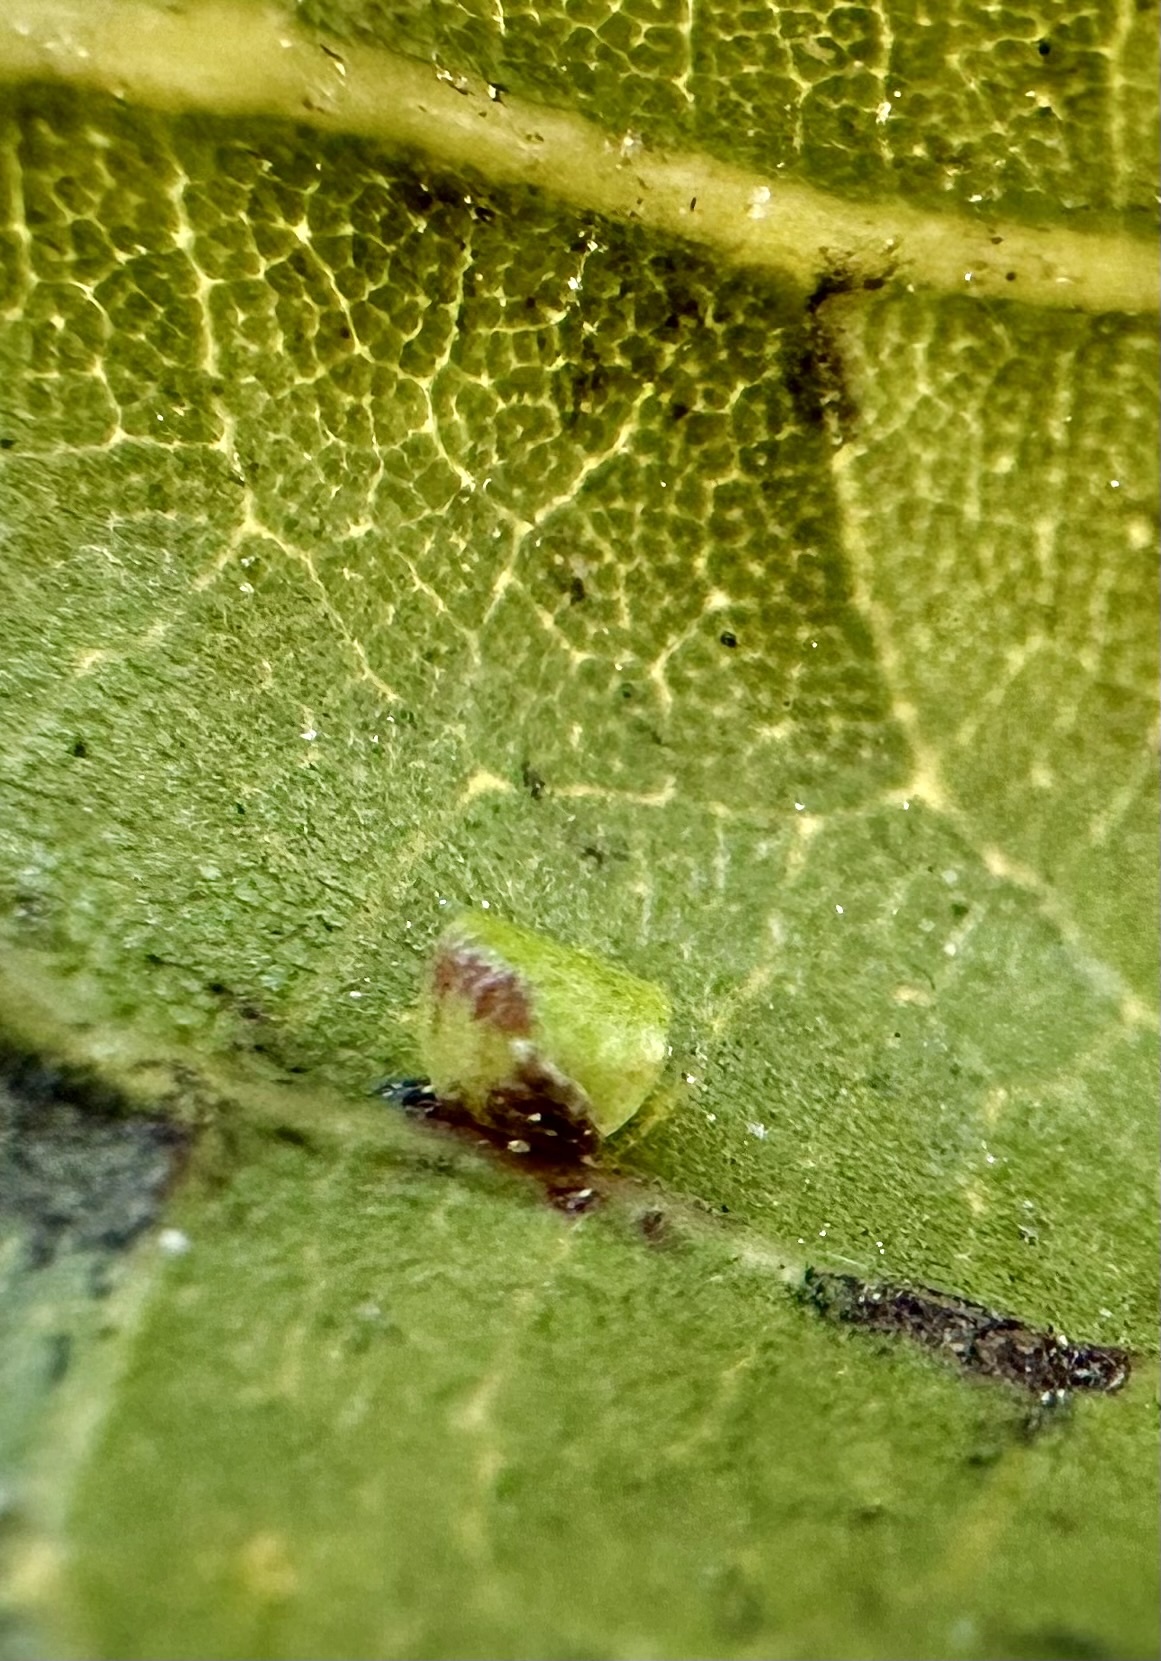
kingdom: Animalia
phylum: Arthropoda
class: Insecta
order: Hymenoptera
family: Cynipidae
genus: Dryocosmus
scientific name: Dryocosmus
